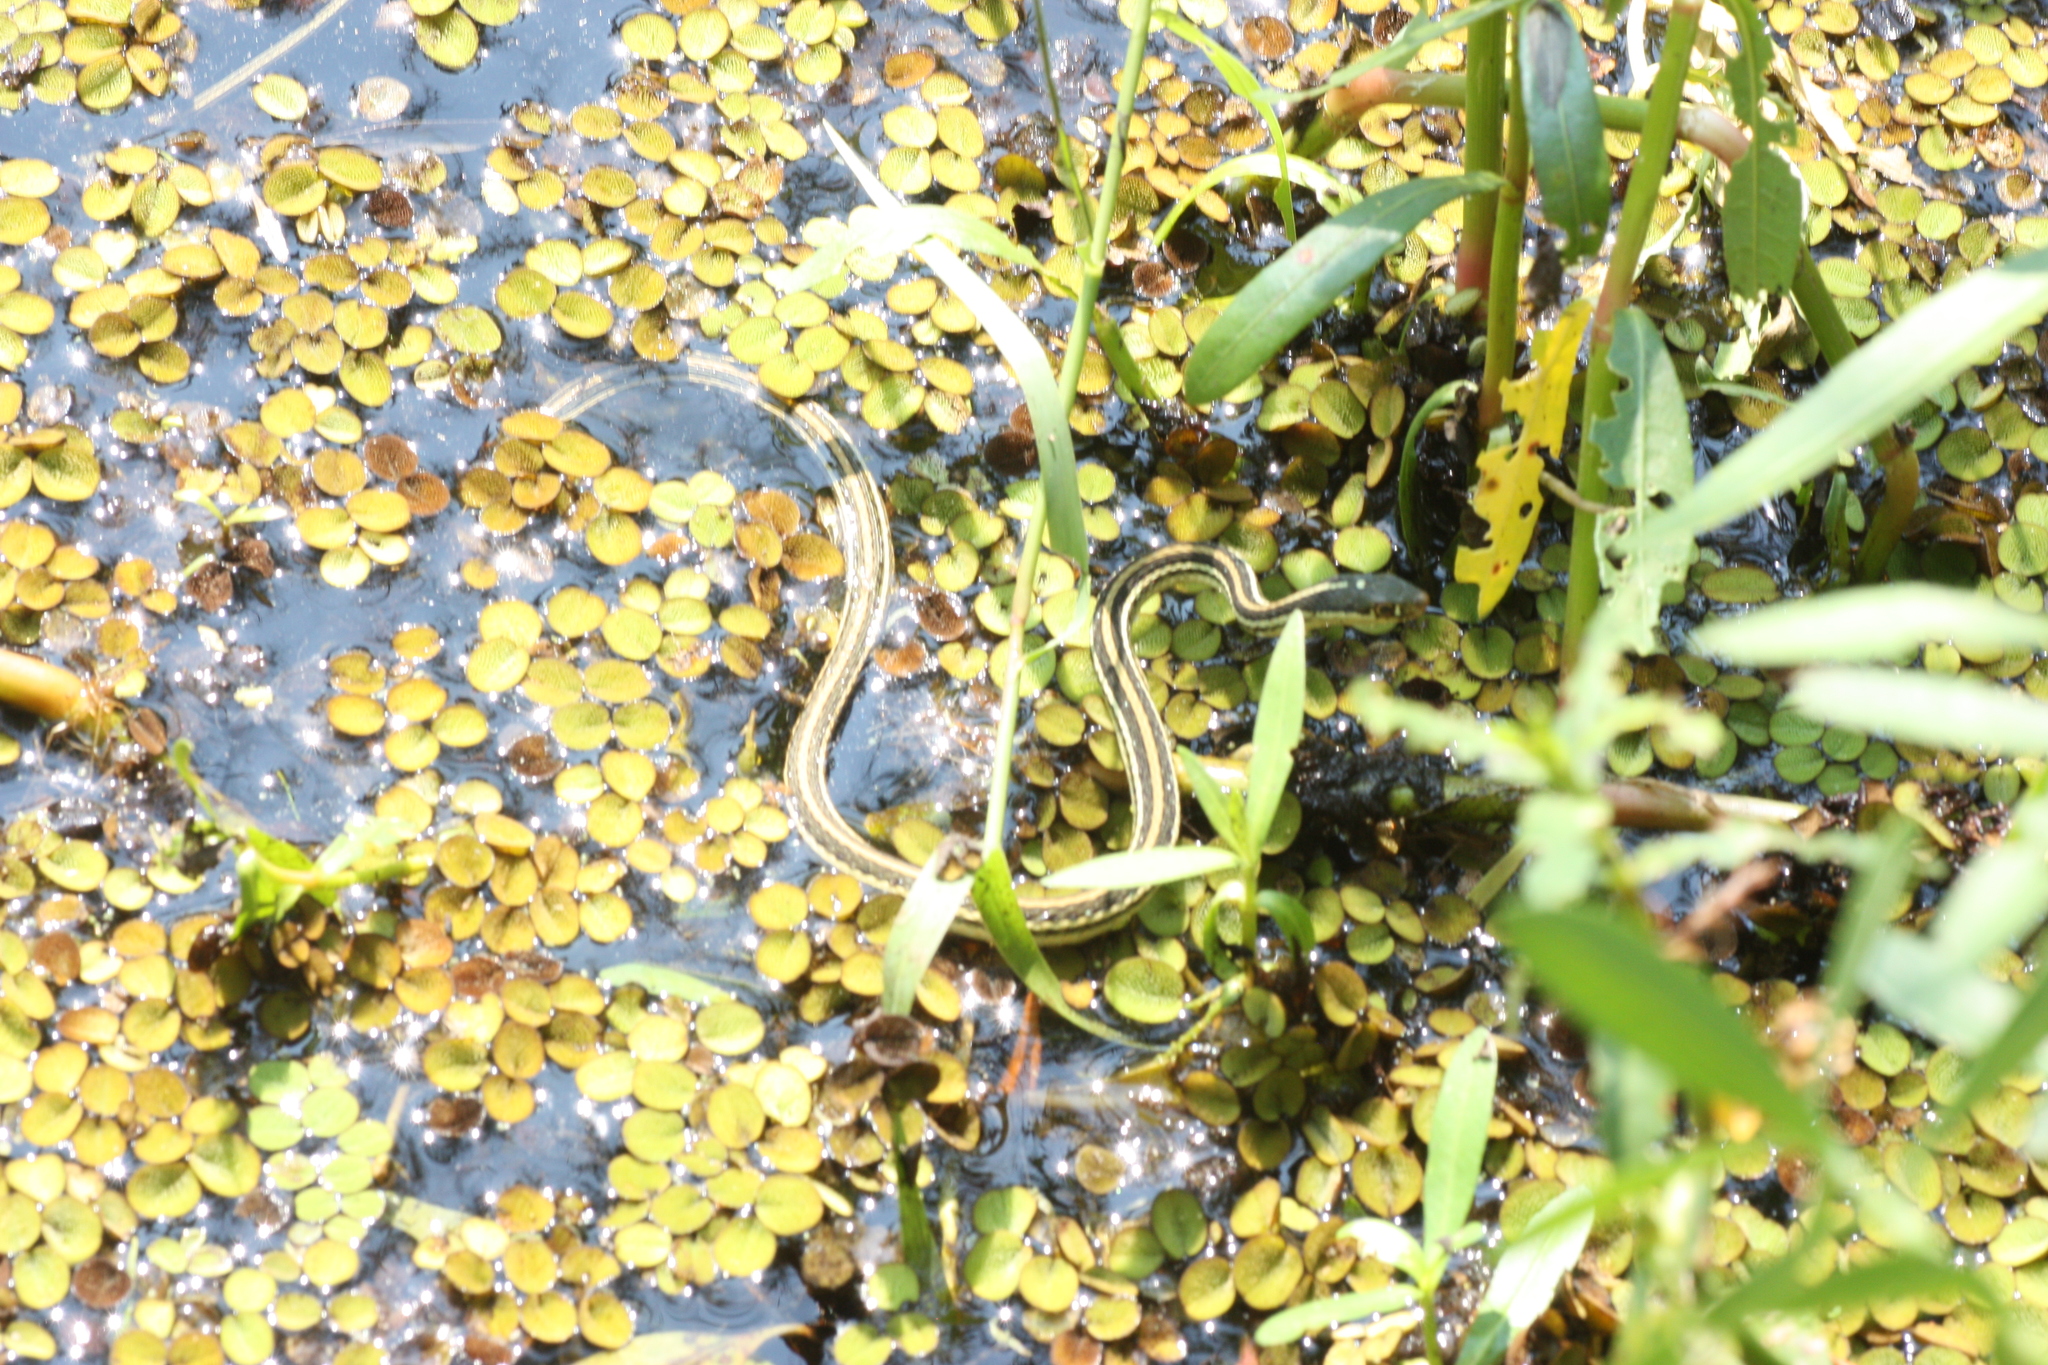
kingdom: Animalia
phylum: Chordata
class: Squamata
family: Colubridae
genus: Thamnophis
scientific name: Thamnophis proximus
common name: Western ribbon snake
